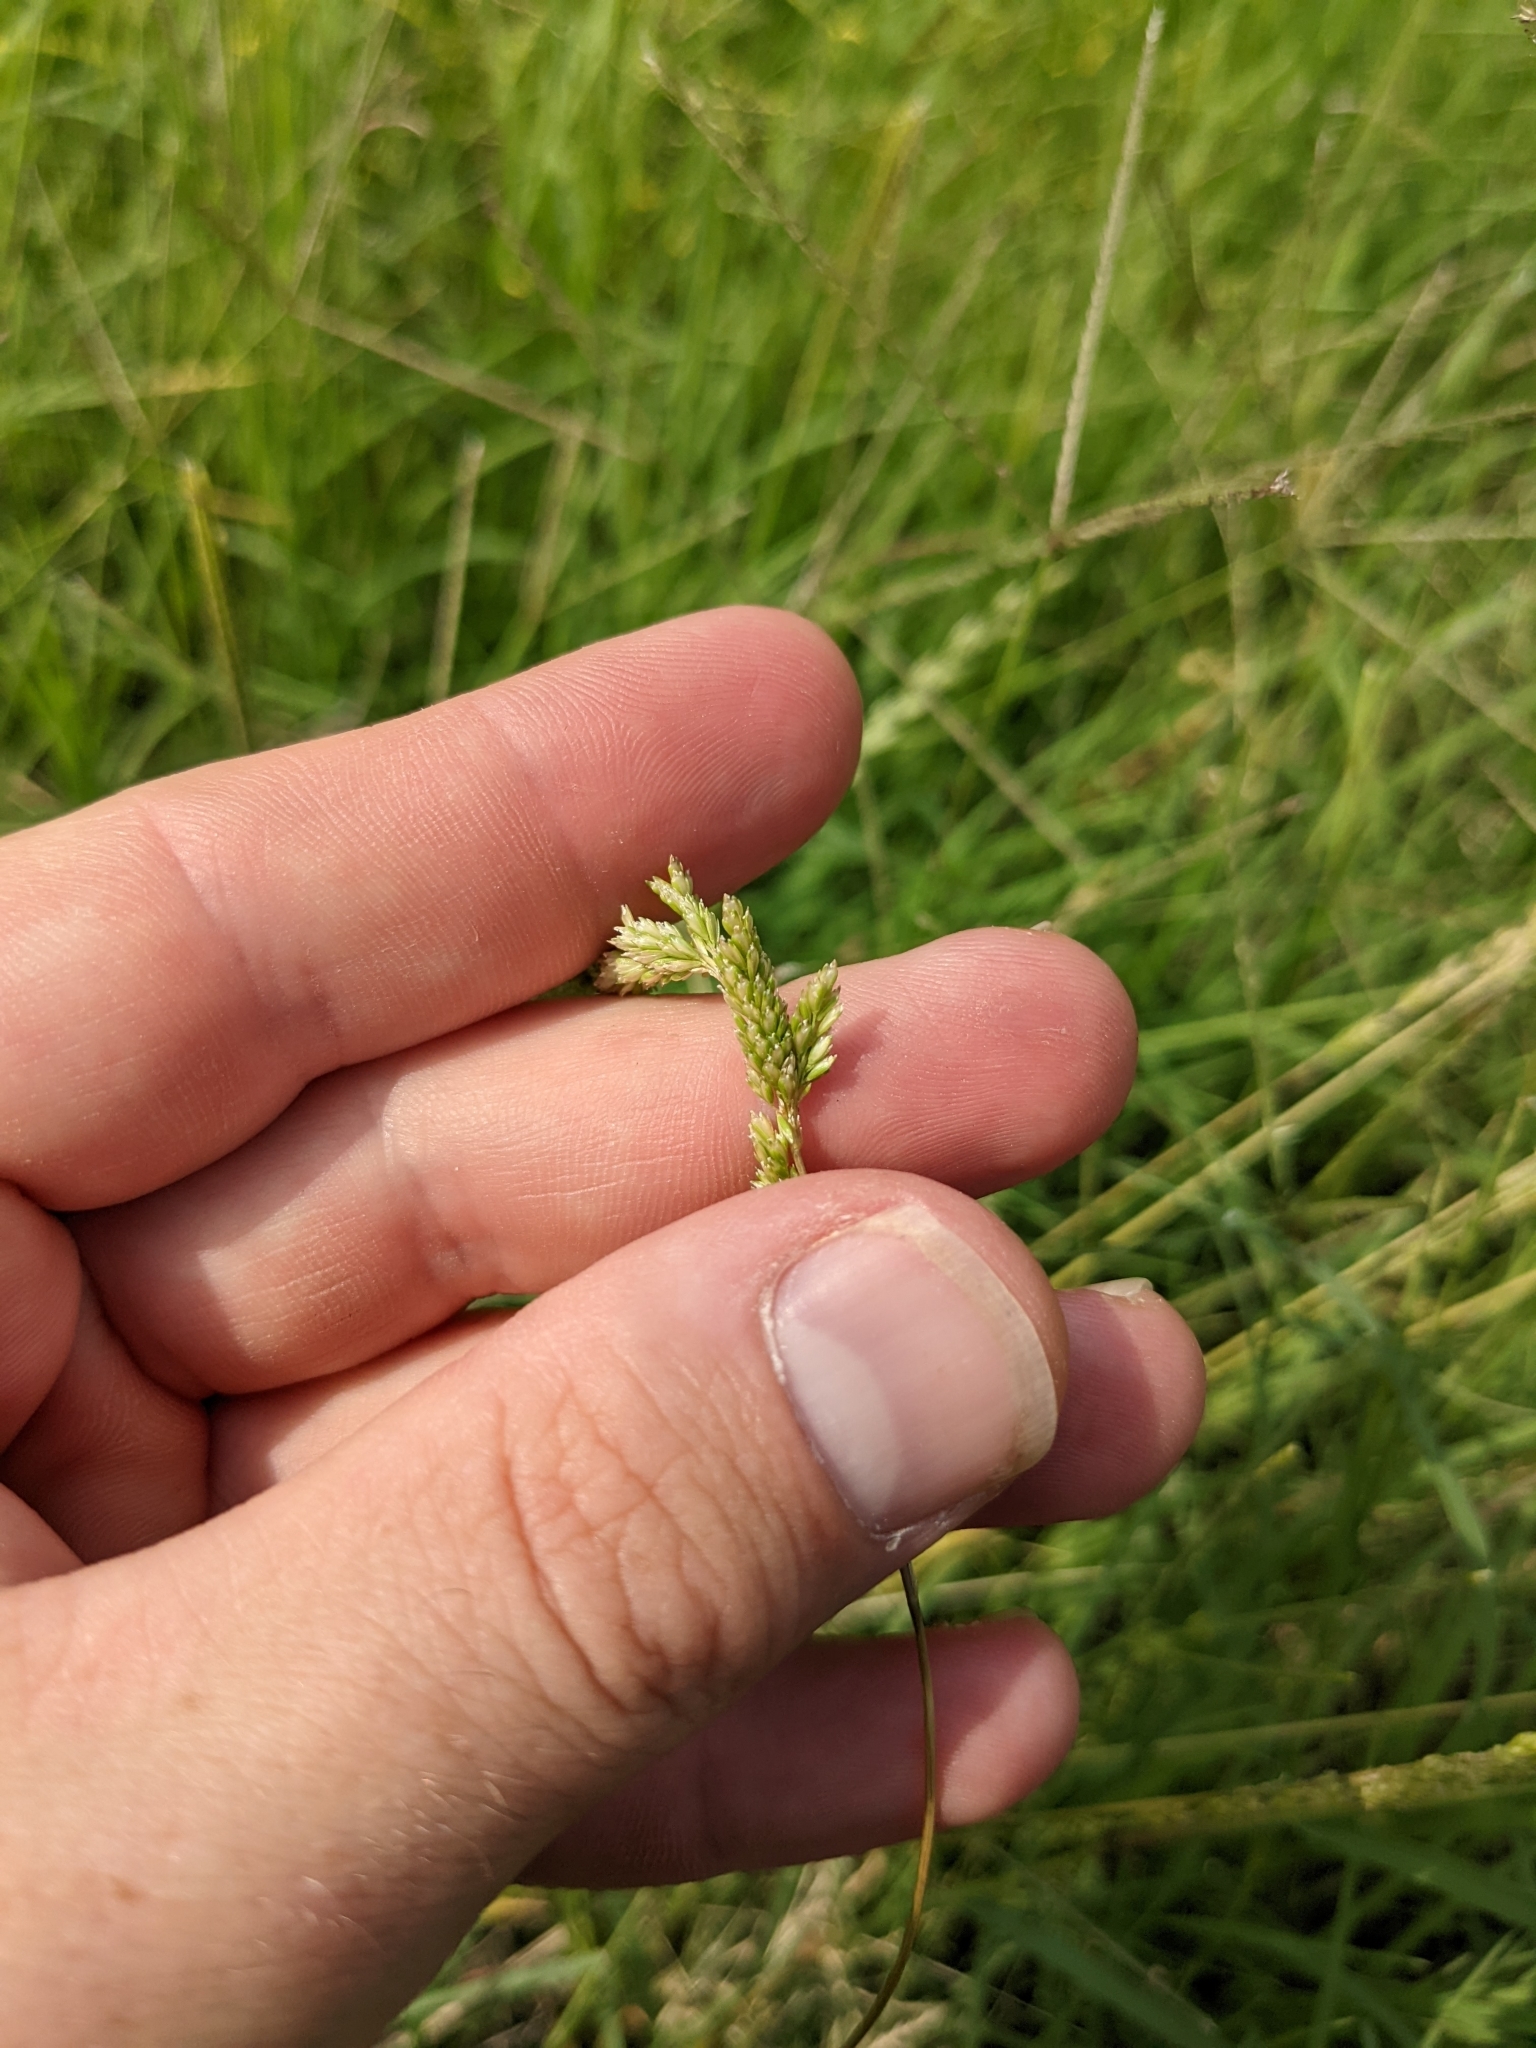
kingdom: Plantae
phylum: Tracheophyta
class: Liliopsida
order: Poales
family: Poaceae
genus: Sphenopholis
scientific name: Sphenopholis obtusata
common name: Prairie grass
